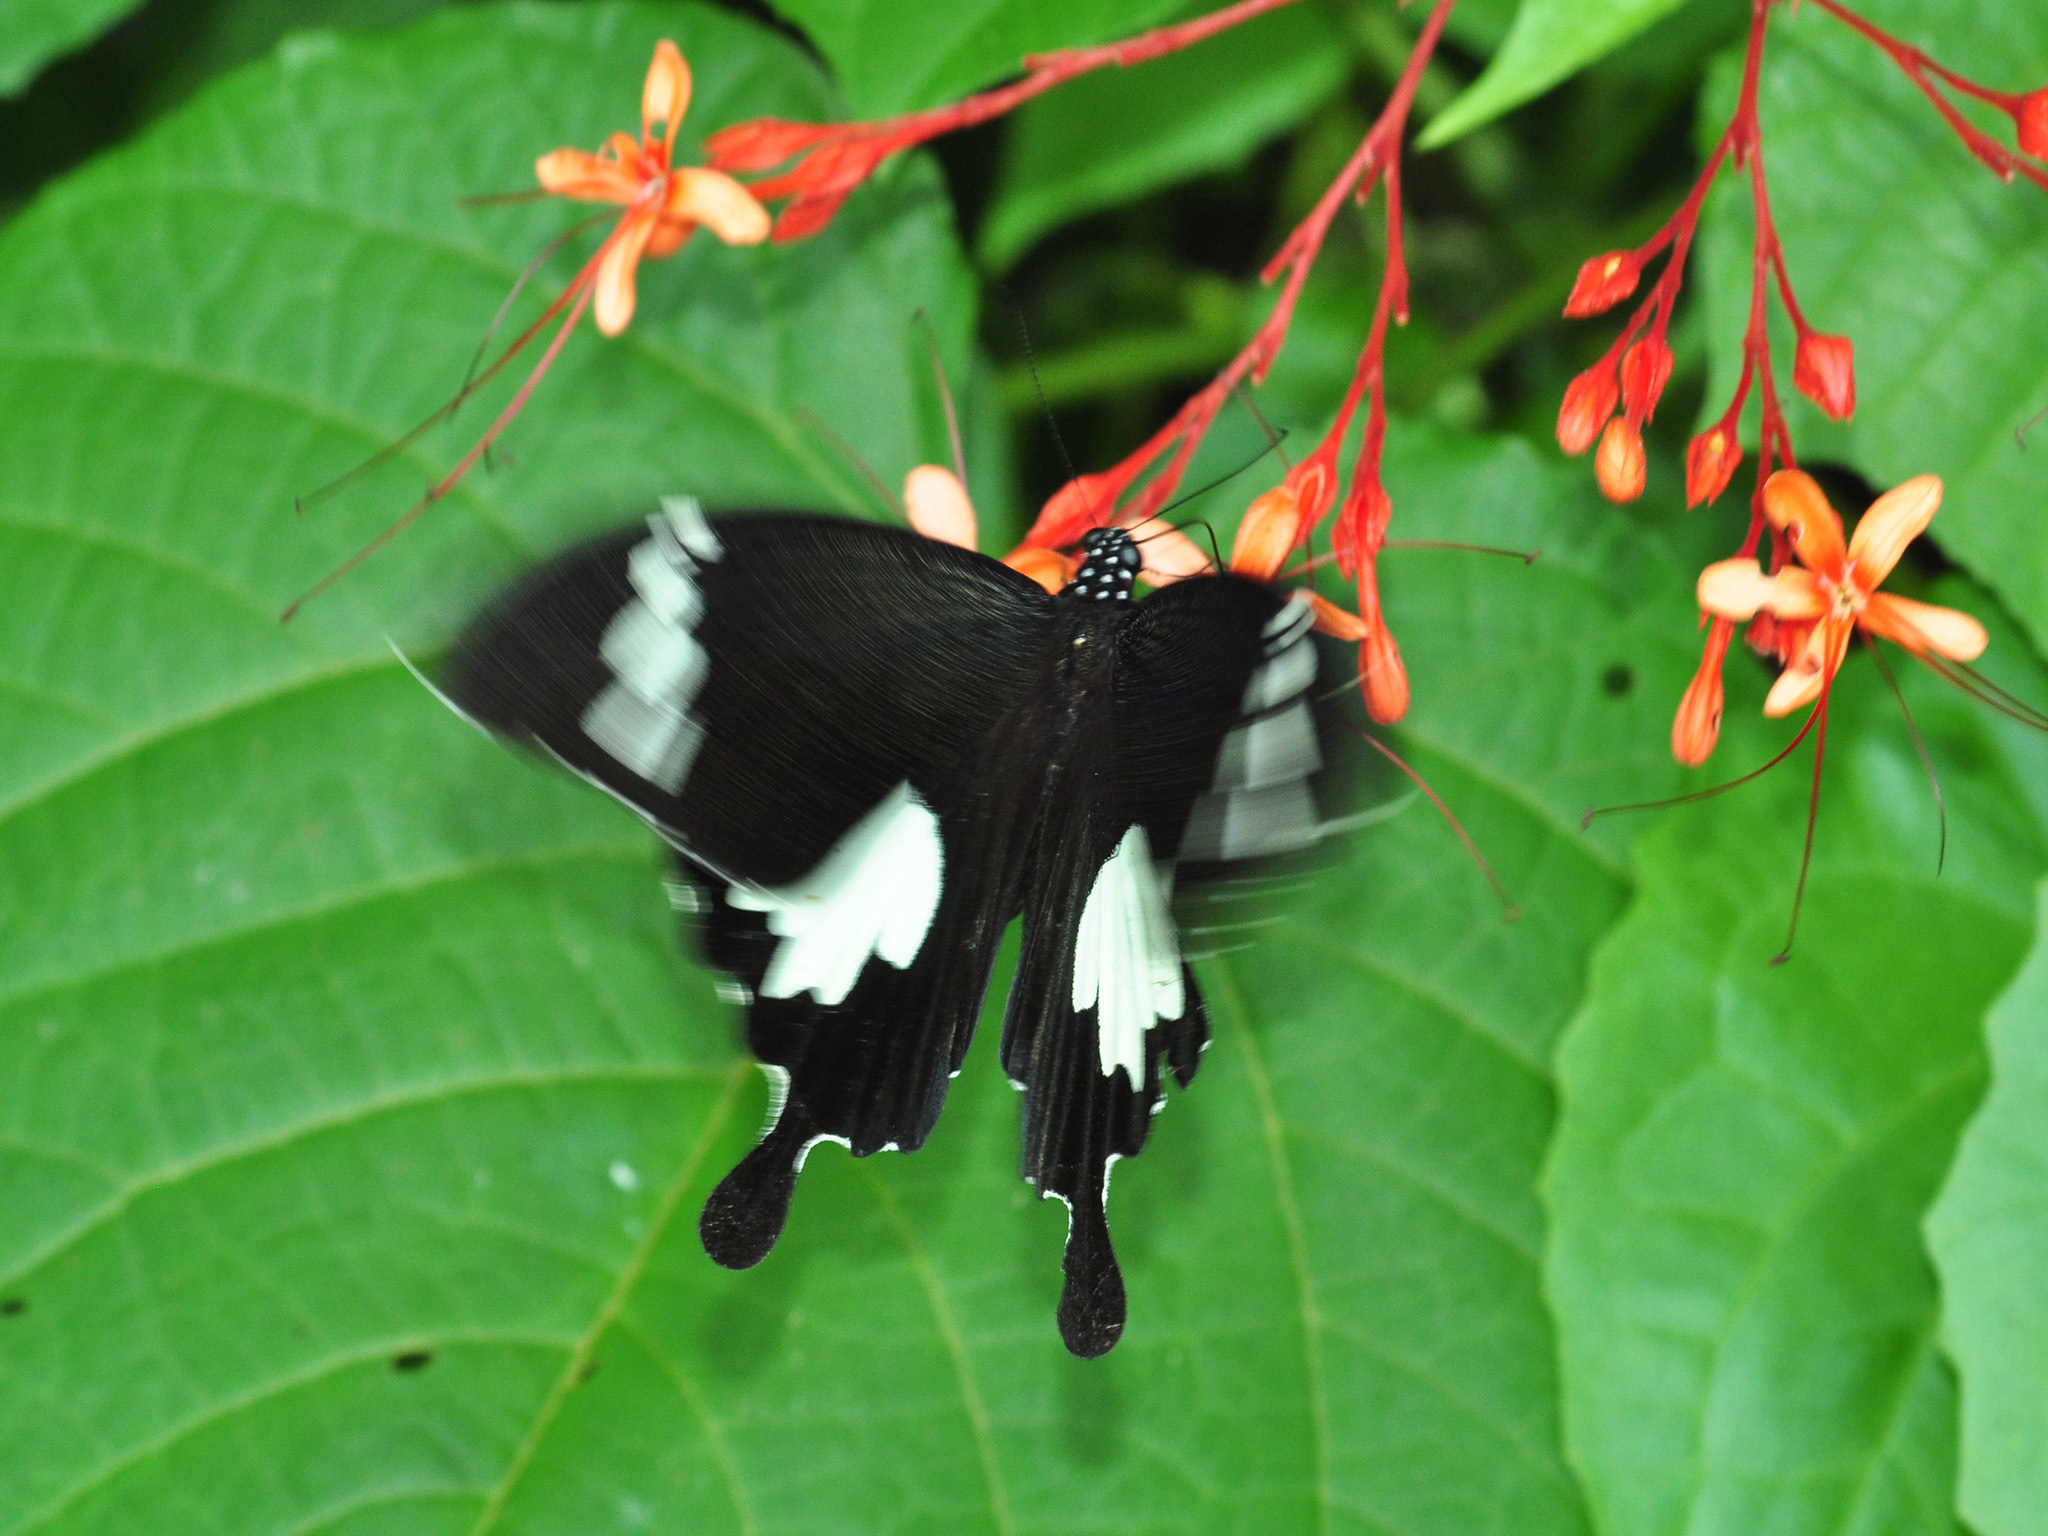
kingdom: Animalia
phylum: Arthropoda
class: Insecta
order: Lepidoptera
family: Papilionidae
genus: Papilio
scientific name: Papilio nephelus
